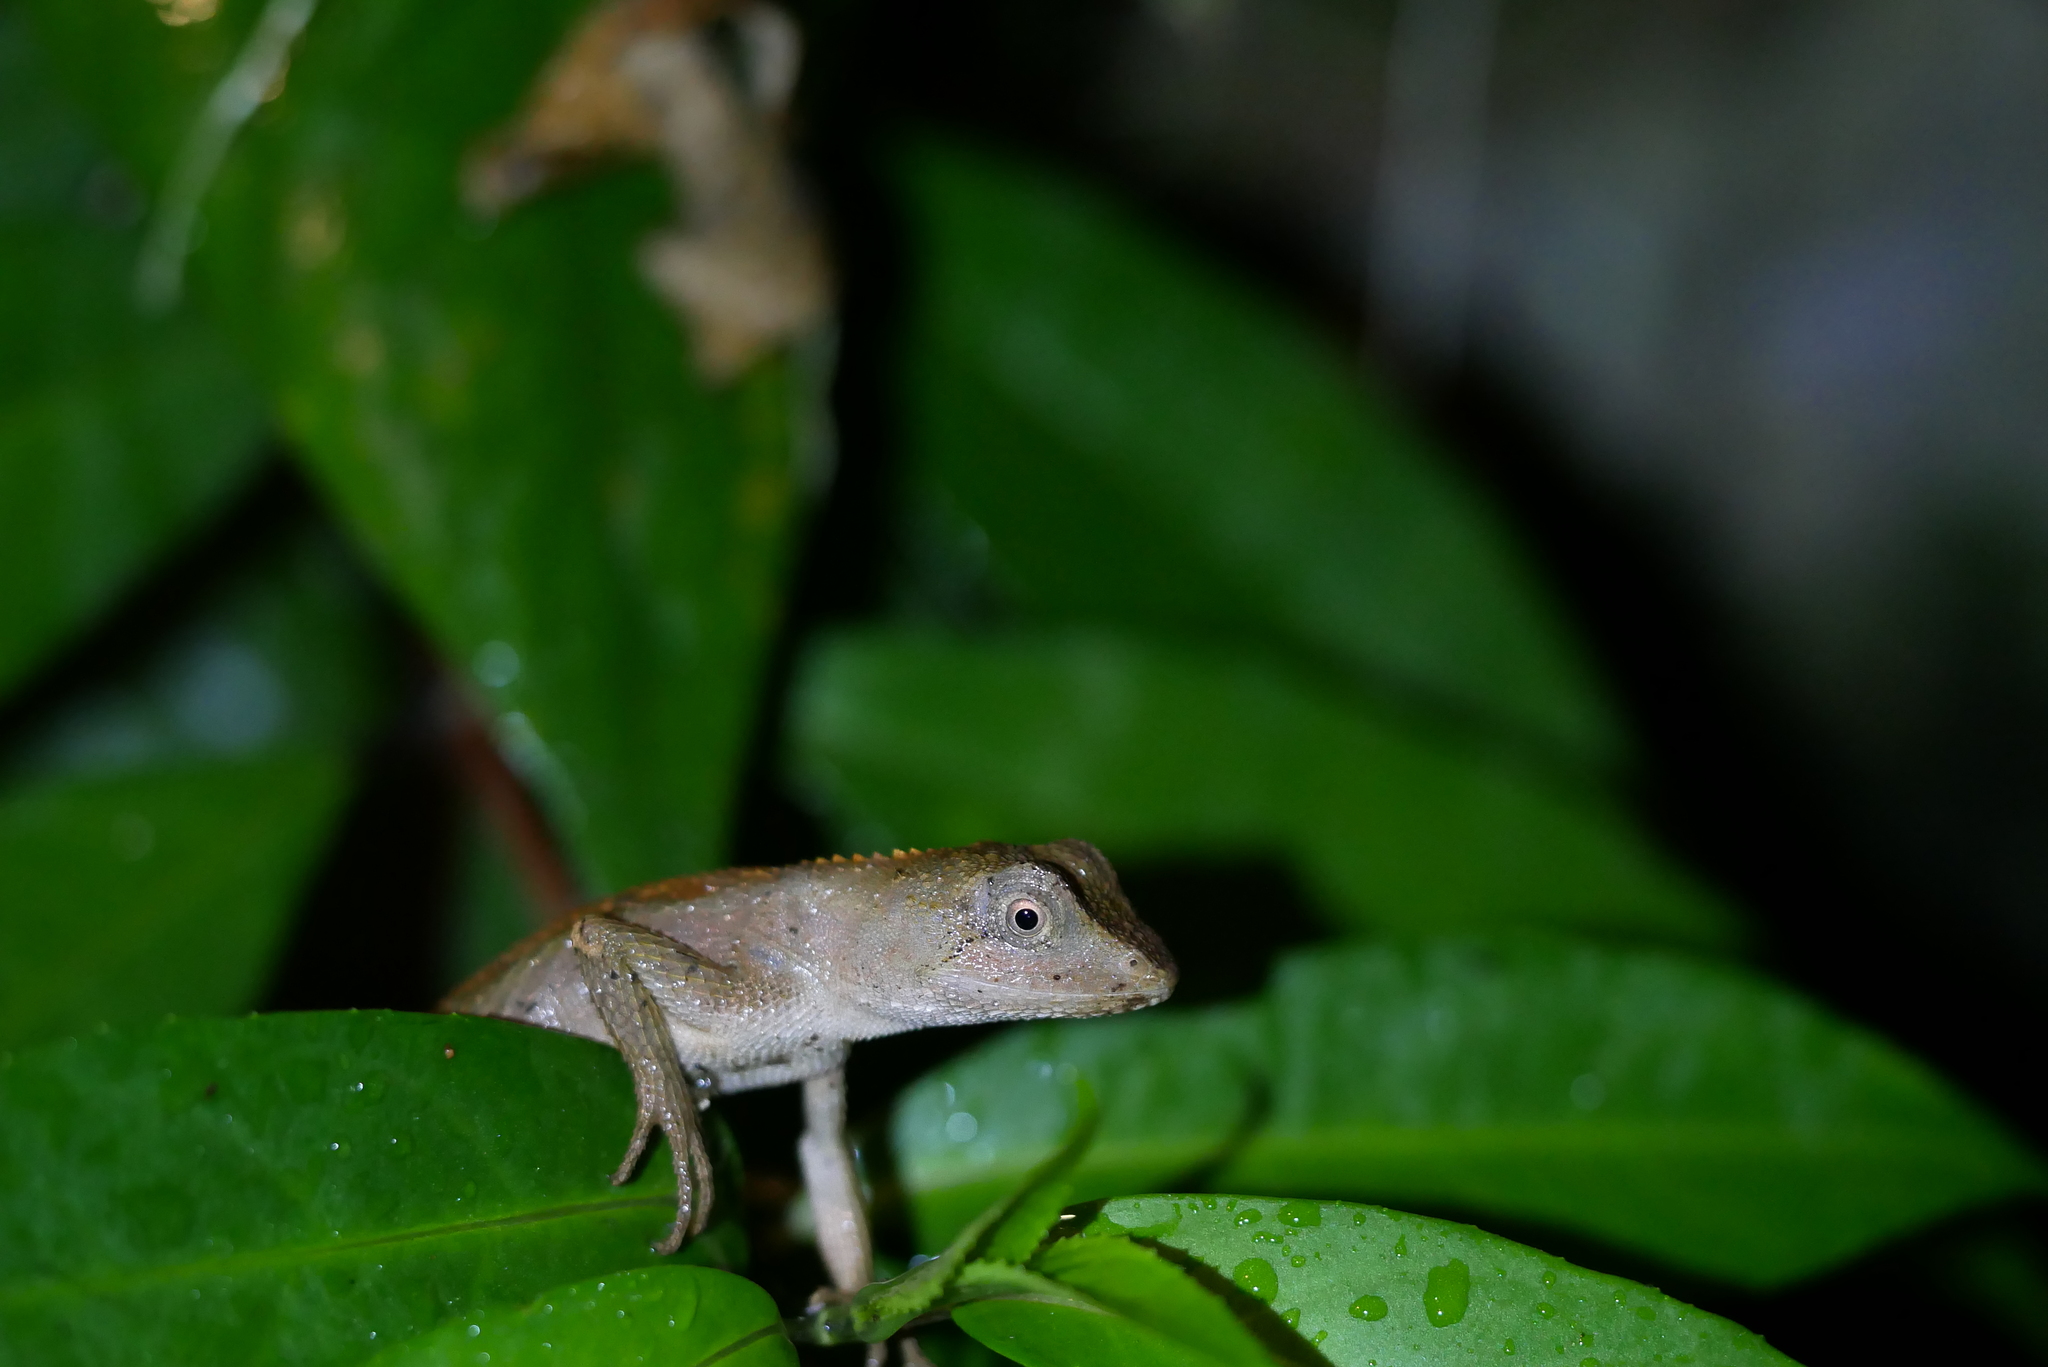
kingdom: Animalia
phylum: Chordata
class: Squamata
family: Agamidae
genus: Diploderma
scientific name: Diploderma swinhonis
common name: Taiwan japalure
